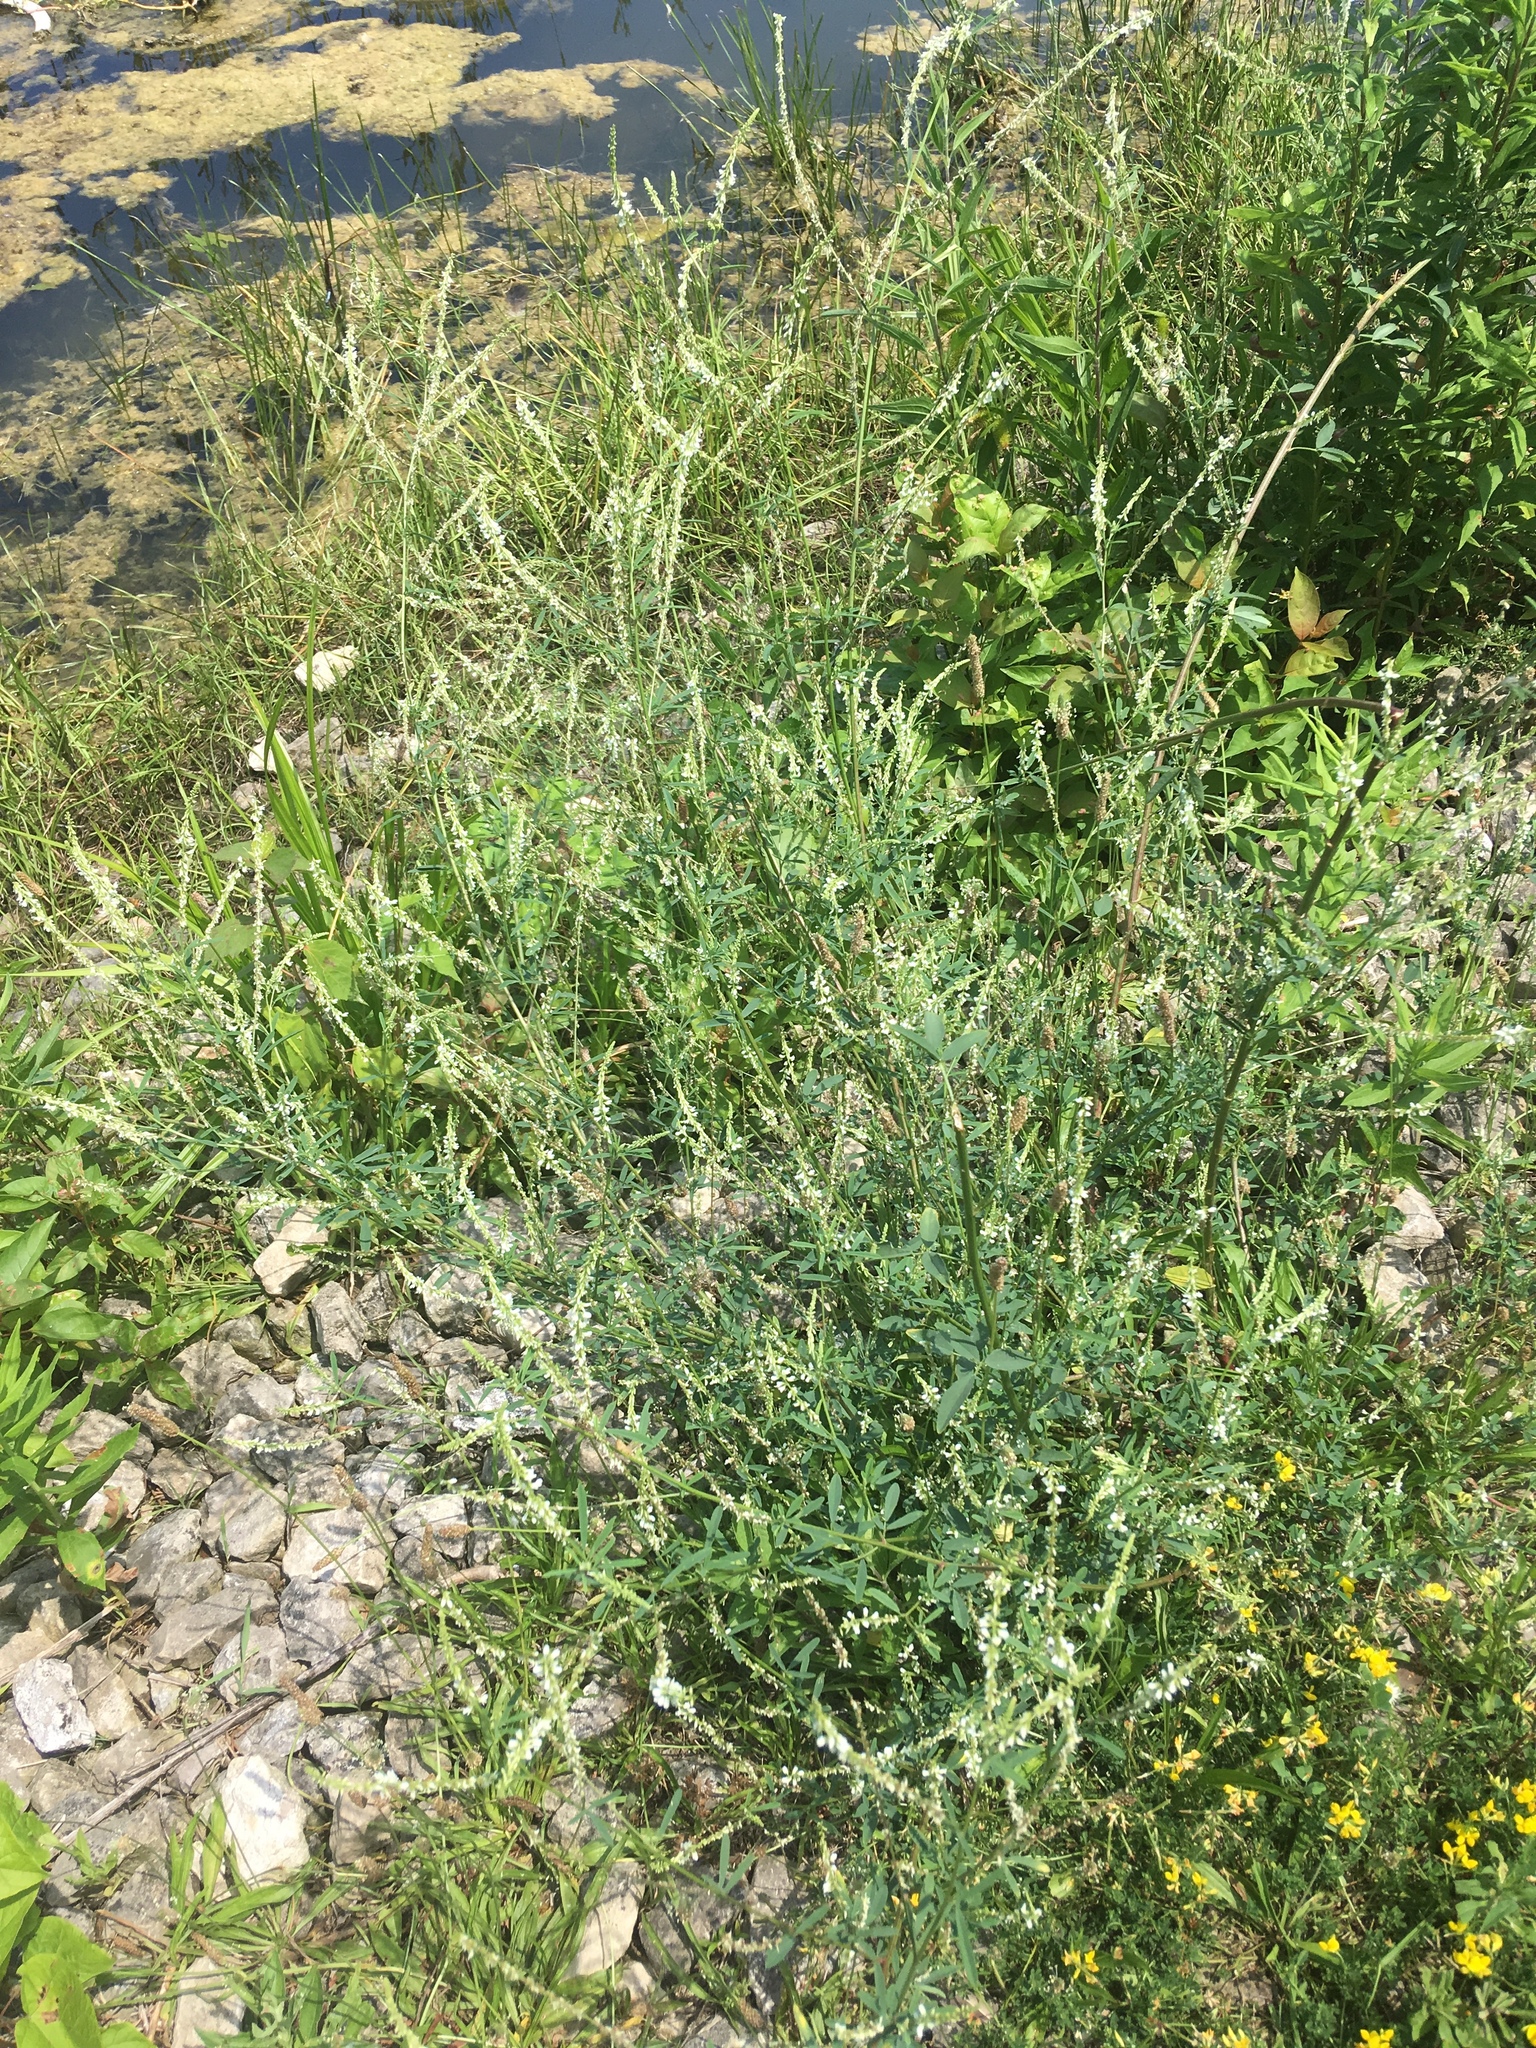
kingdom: Plantae
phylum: Tracheophyta
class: Magnoliopsida
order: Fabales
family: Fabaceae
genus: Melilotus
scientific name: Melilotus albus
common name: White melilot
